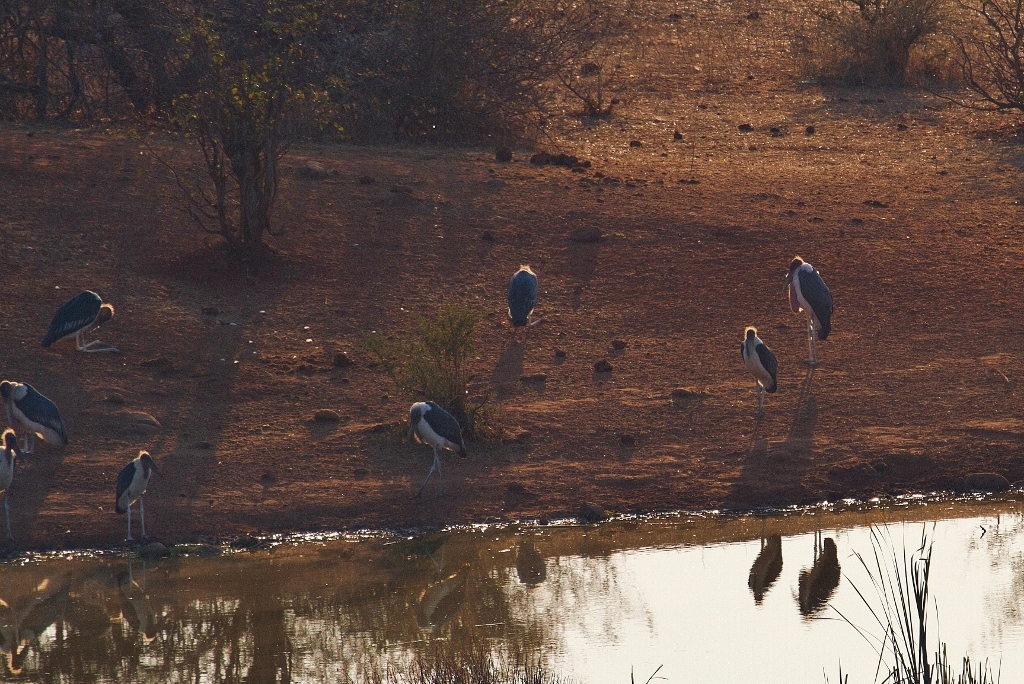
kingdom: Animalia
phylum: Chordata
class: Aves
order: Ciconiiformes
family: Ciconiidae
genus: Leptoptilos
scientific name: Leptoptilos crumenifer
